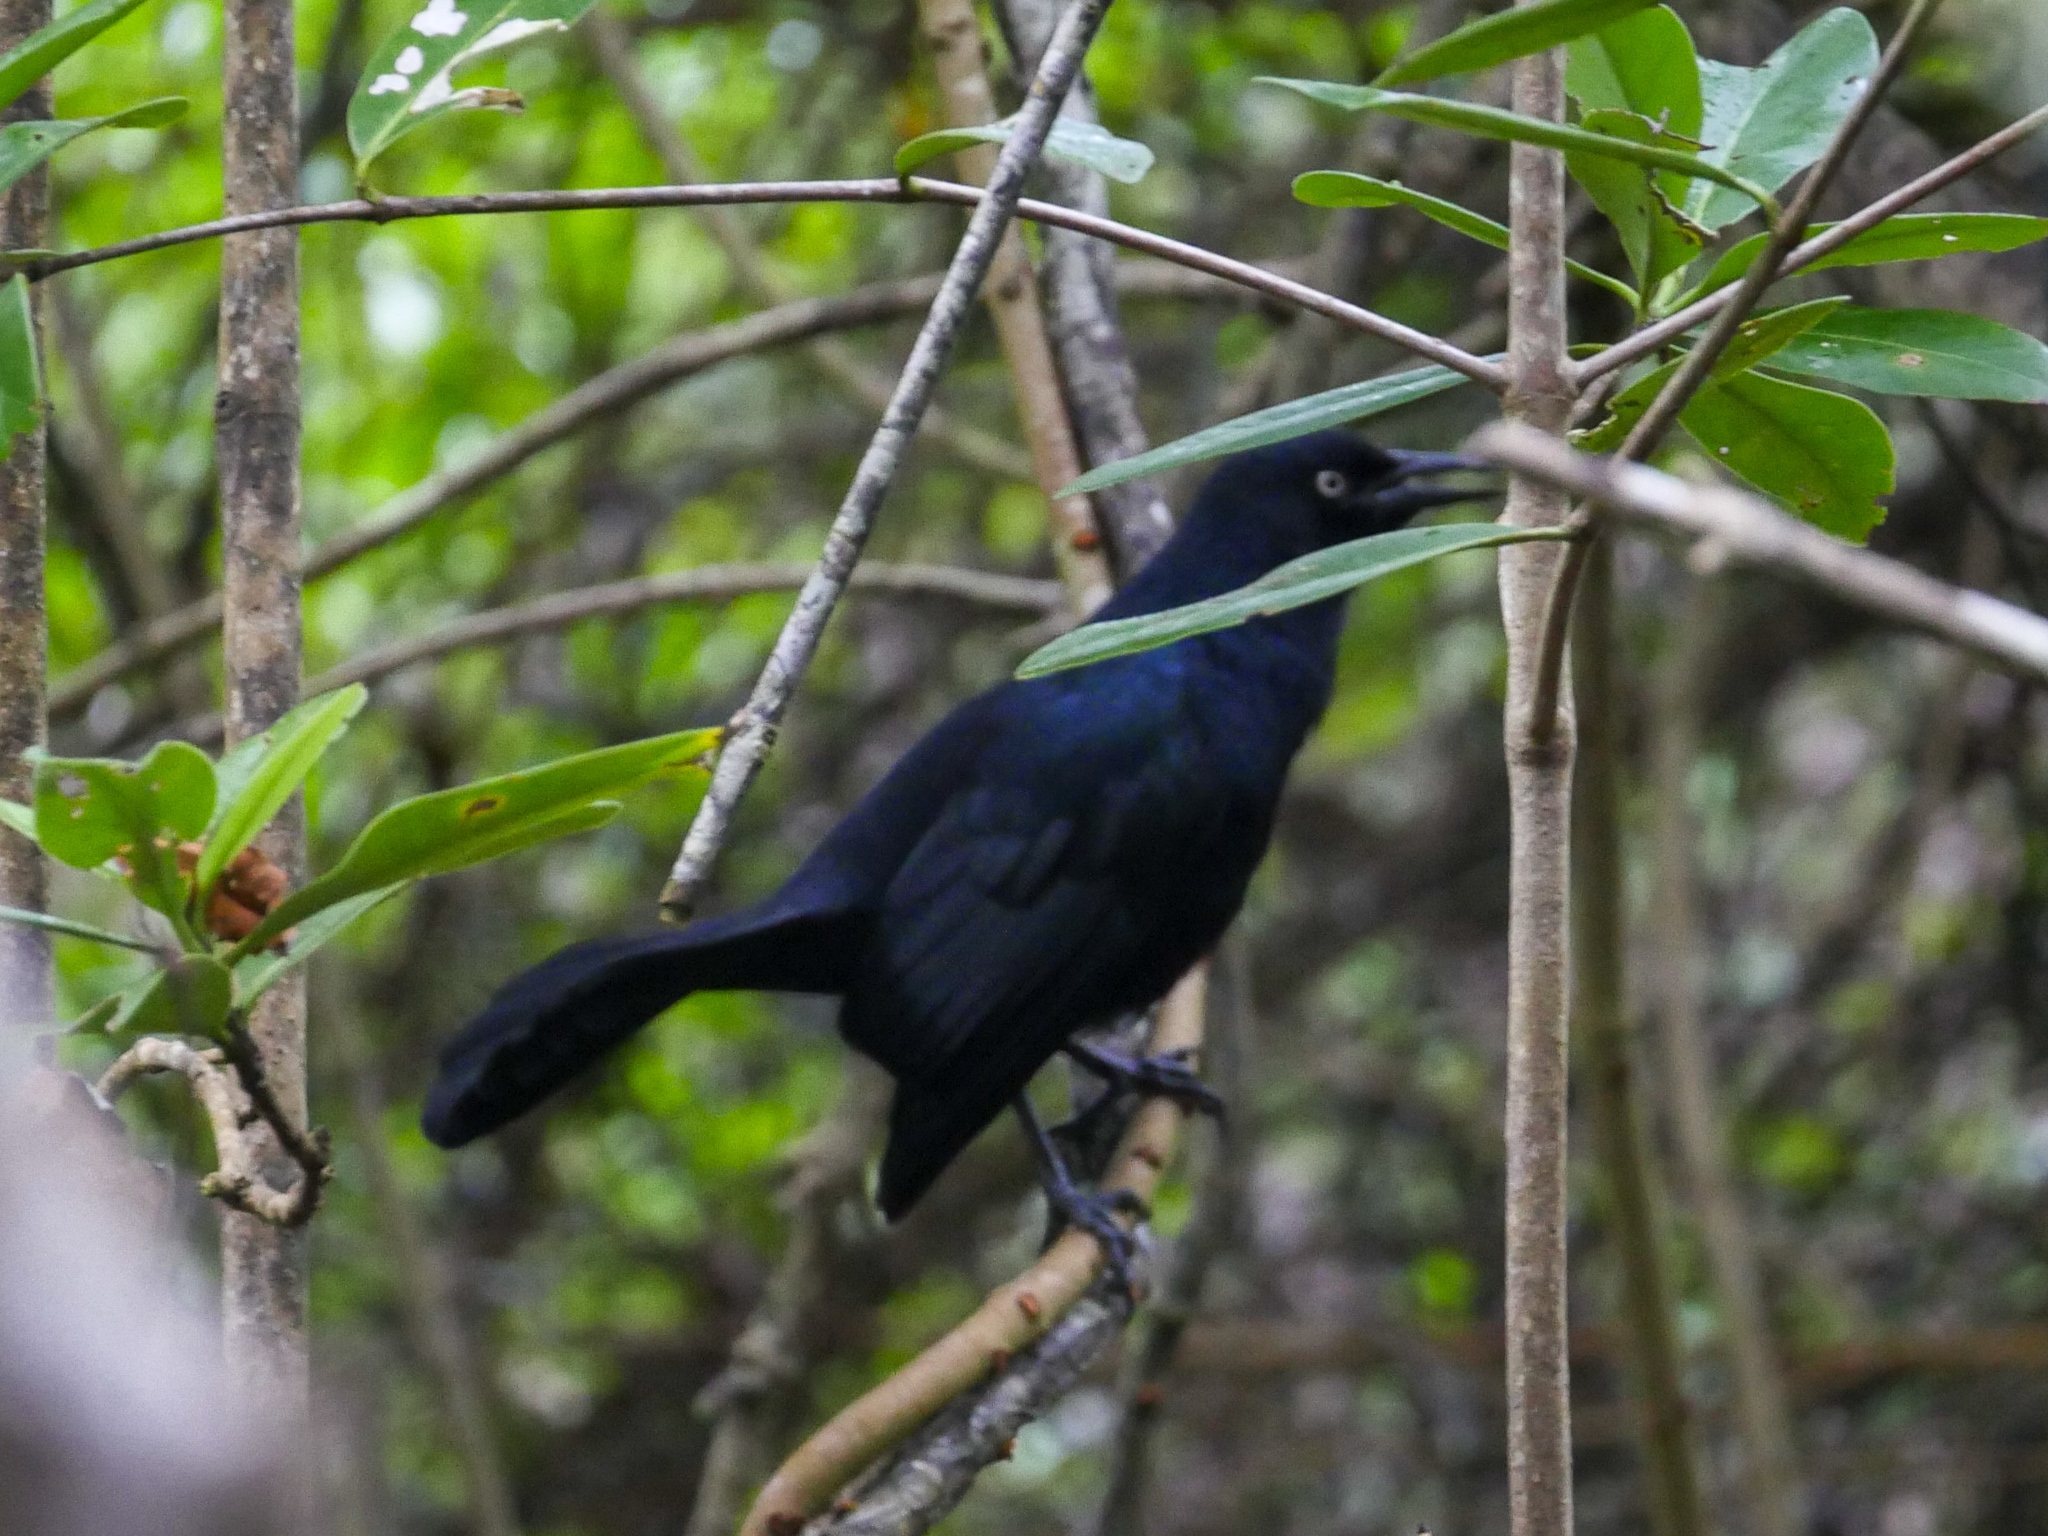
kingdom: Animalia
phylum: Chordata
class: Aves
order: Passeriformes
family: Icteridae
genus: Quiscalus
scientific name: Quiscalus niger
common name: Greater antillean grackle
